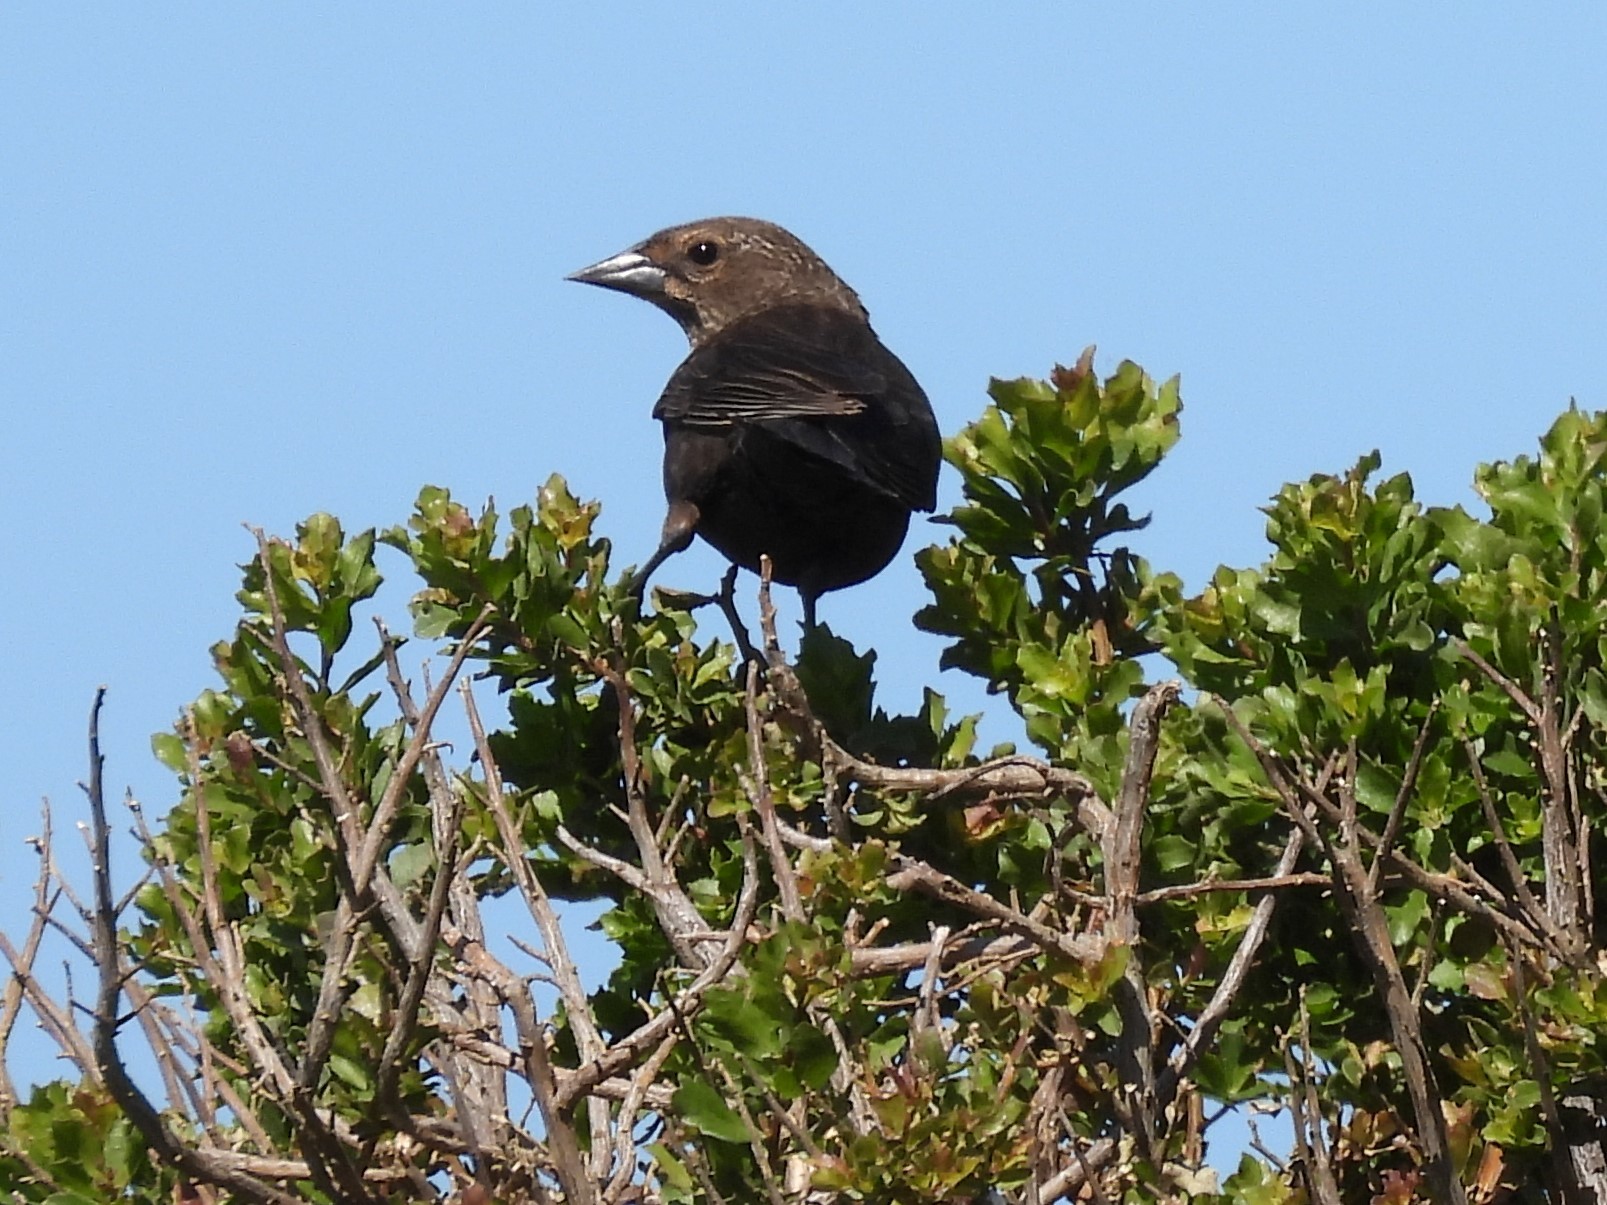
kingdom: Animalia
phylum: Chordata
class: Aves
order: Passeriformes
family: Icteridae
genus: Molothrus
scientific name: Molothrus ater
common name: Brown-headed cowbird
